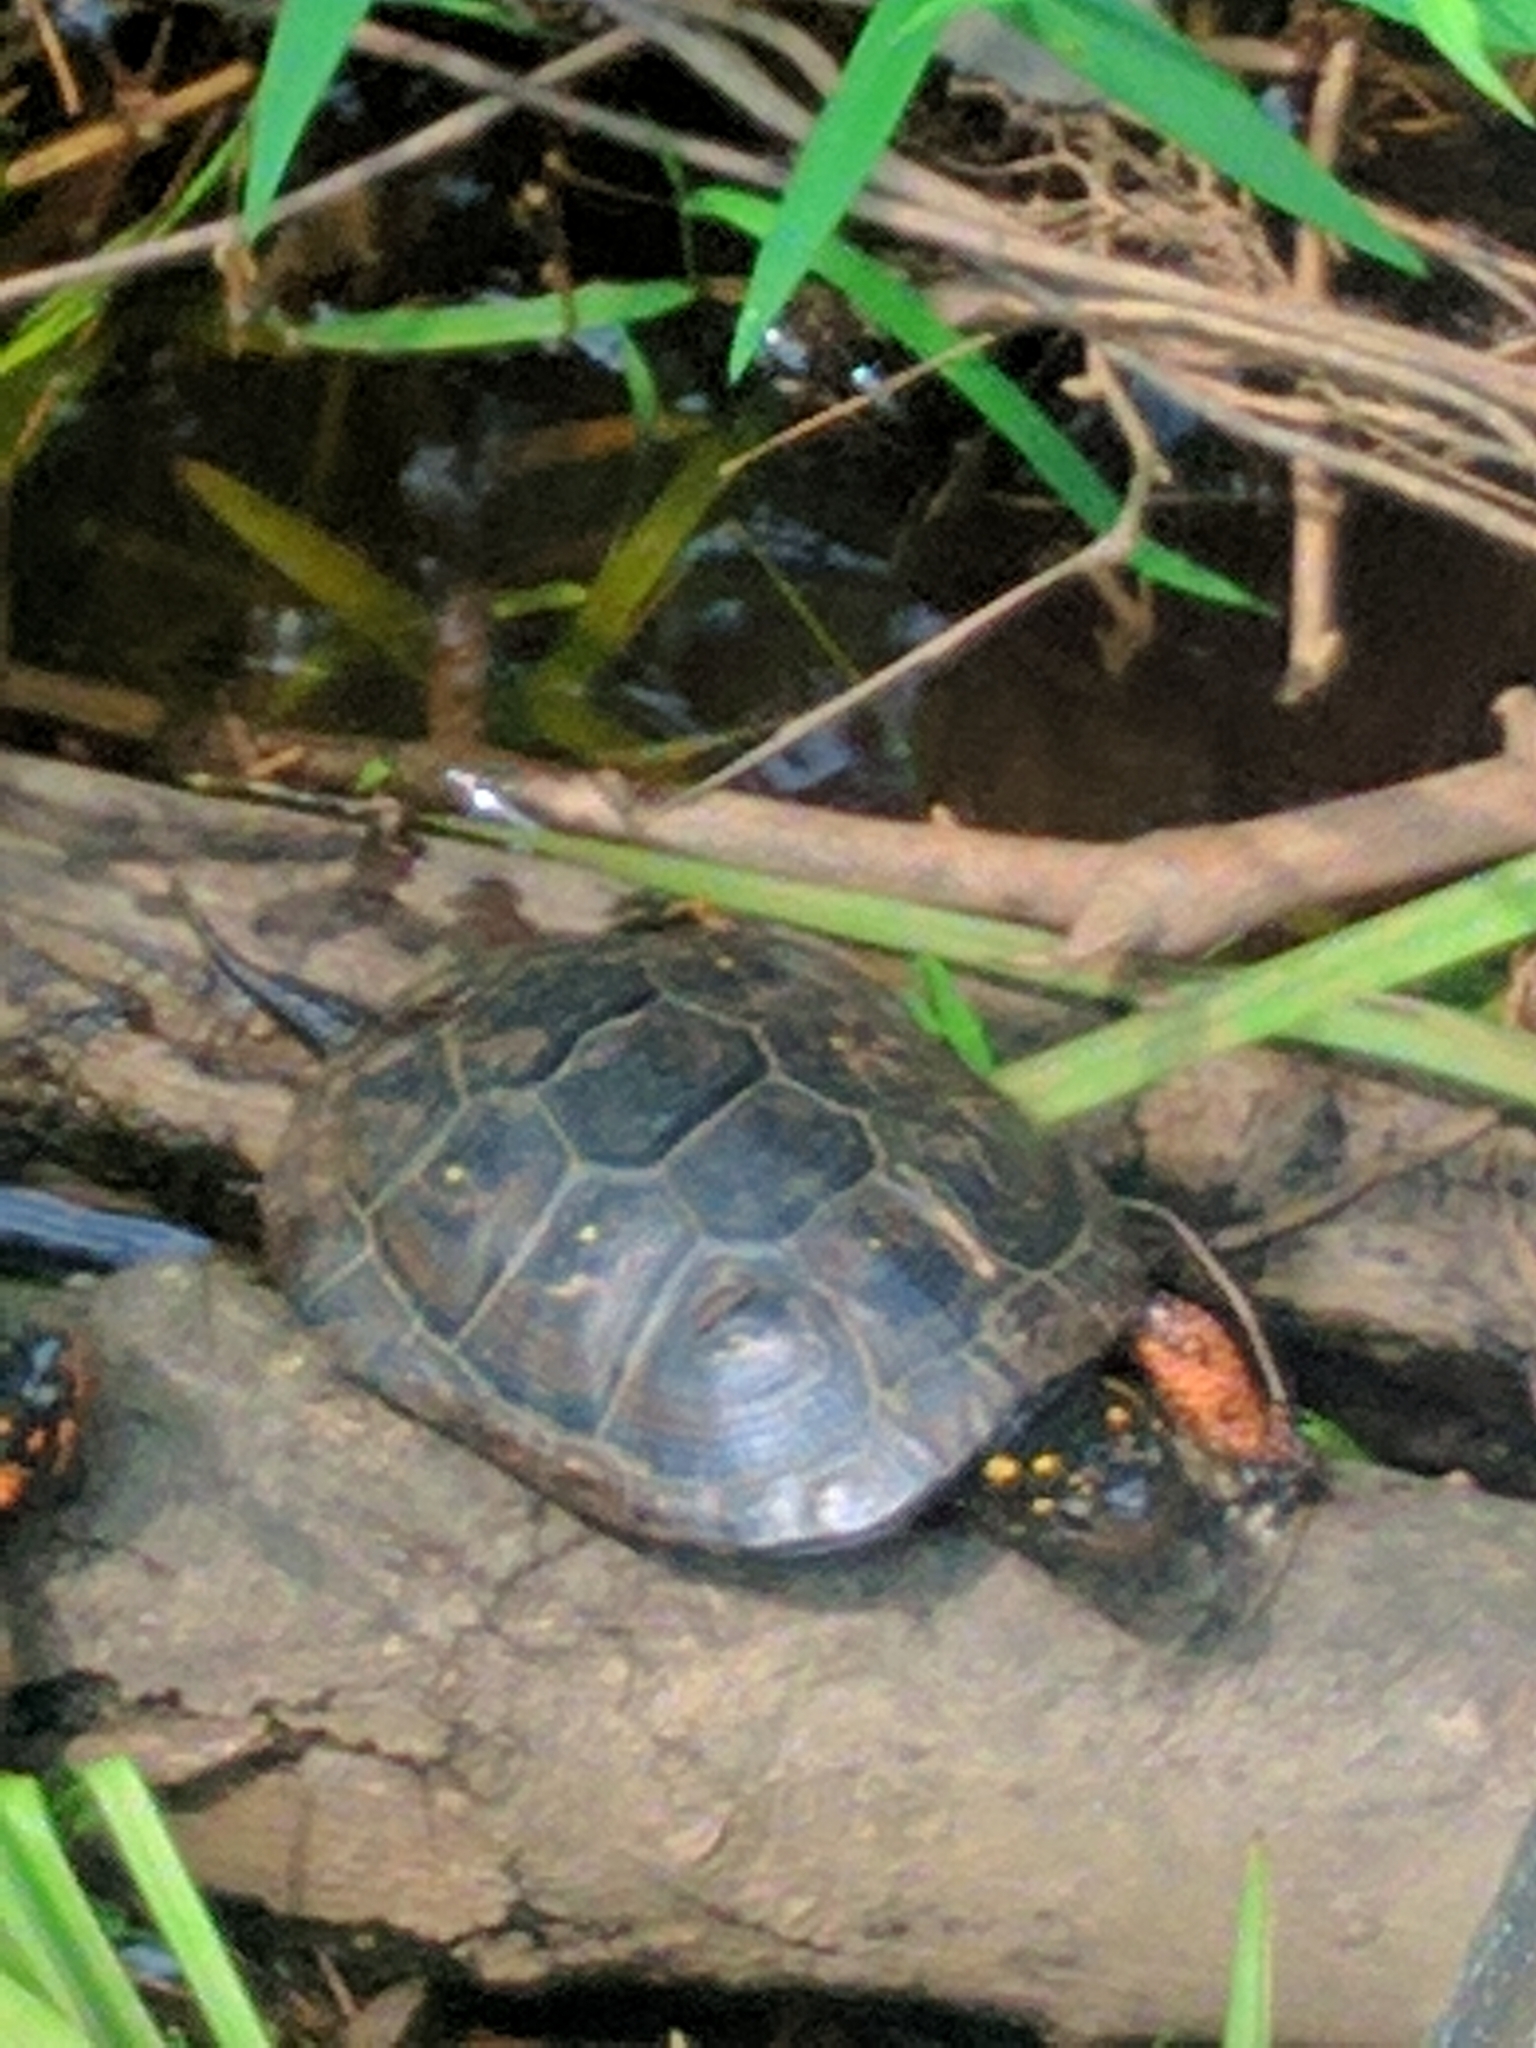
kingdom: Animalia
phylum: Chordata
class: Testudines
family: Emydidae
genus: Clemmys
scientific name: Clemmys guttata
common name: Spotted turtle
